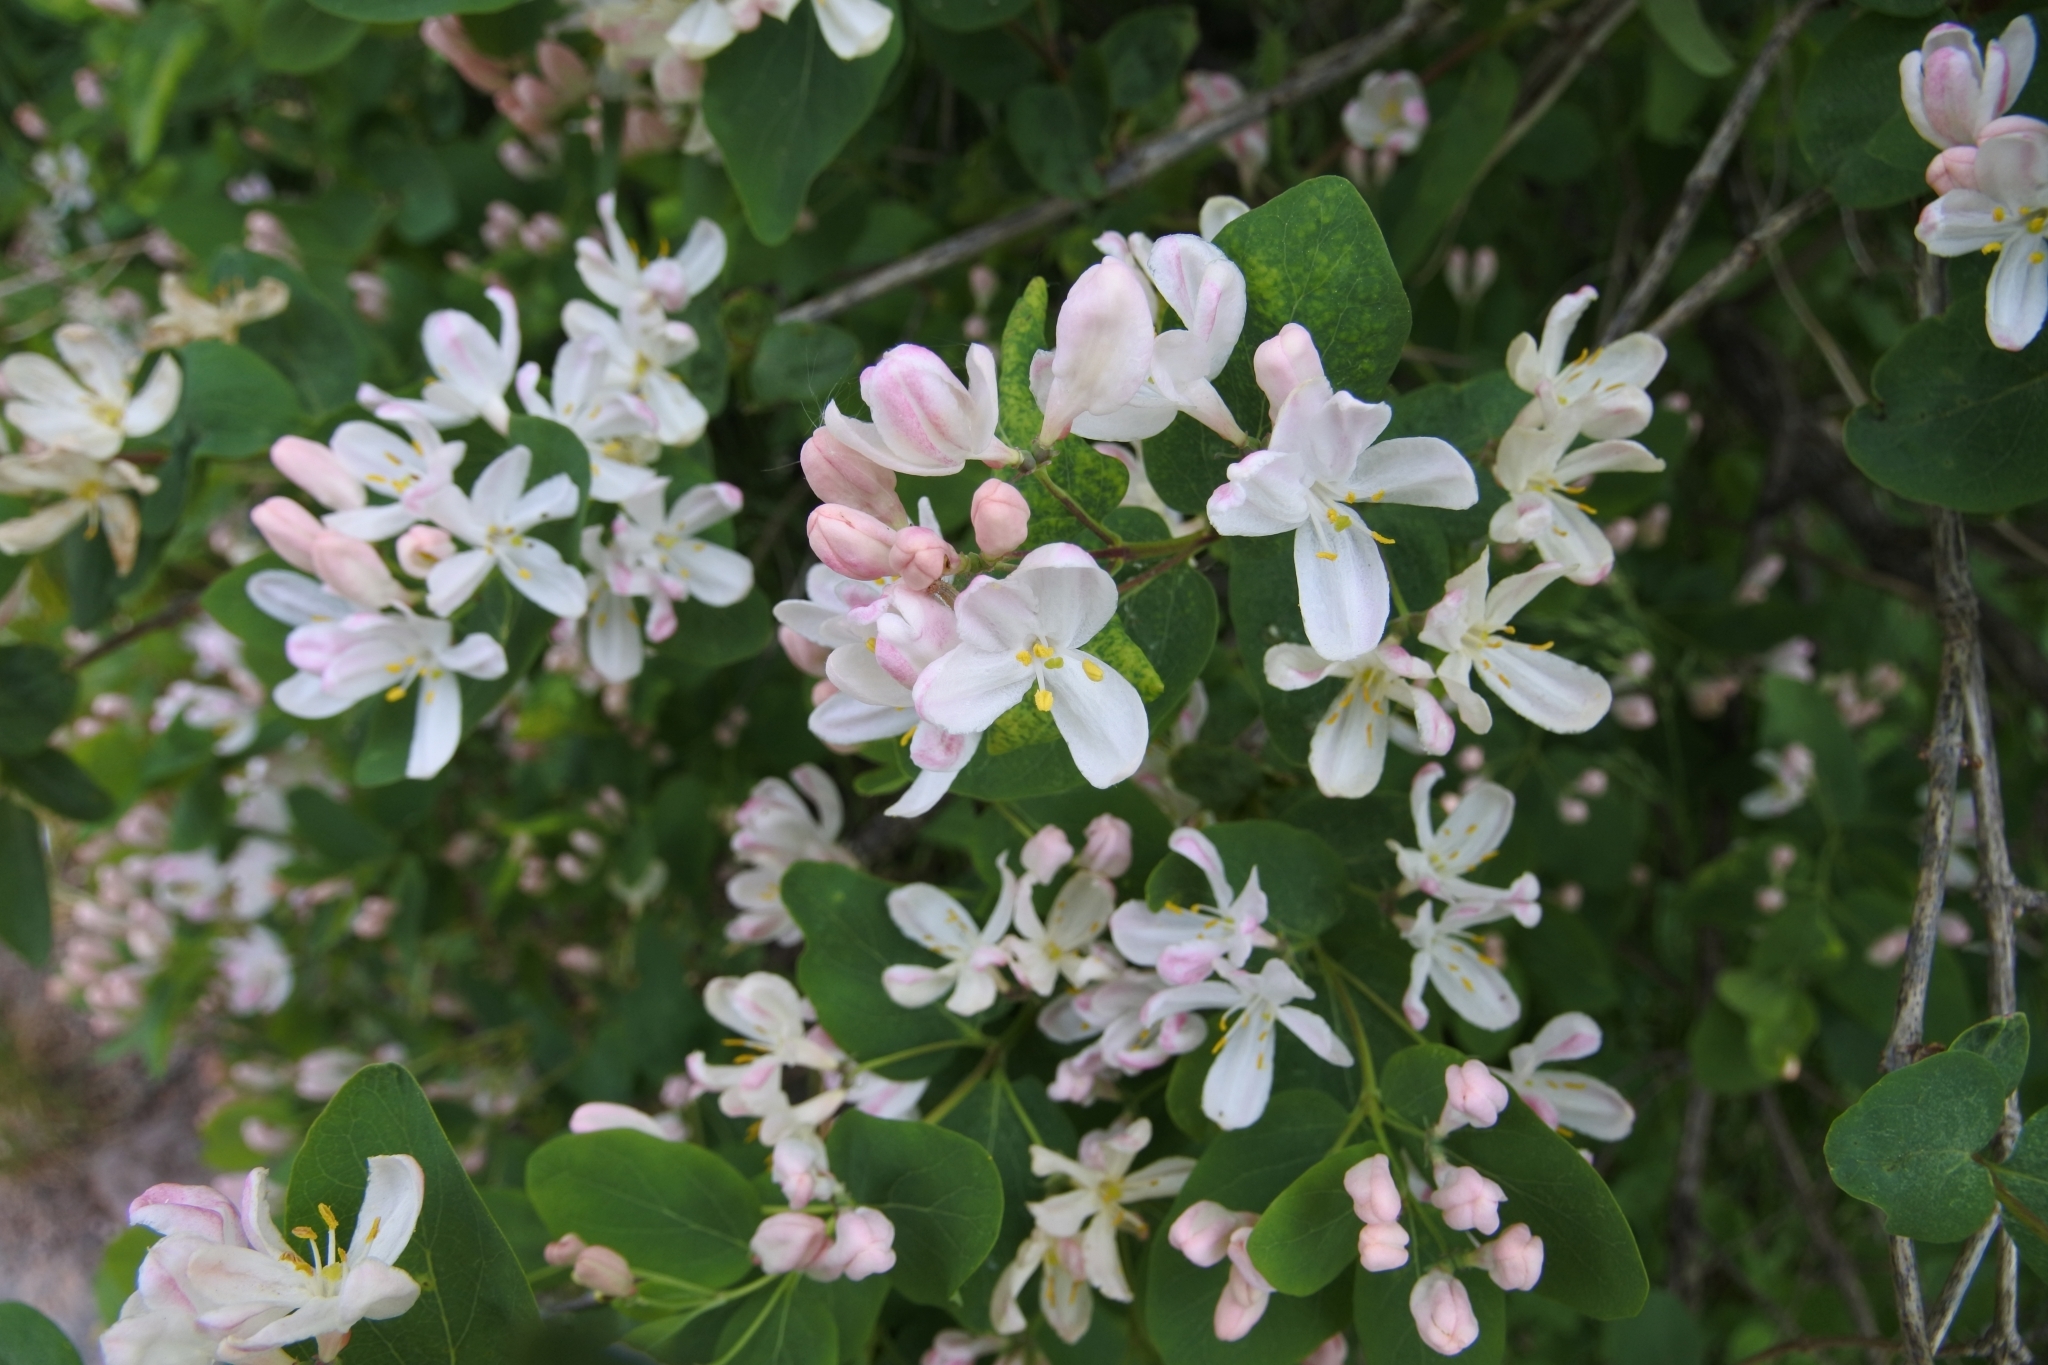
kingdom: Plantae
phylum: Tracheophyta
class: Magnoliopsida
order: Dipsacales
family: Caprifoliaceae
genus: Lonicera
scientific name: Lonicera tatarica
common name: Tatarian honeysuckle
